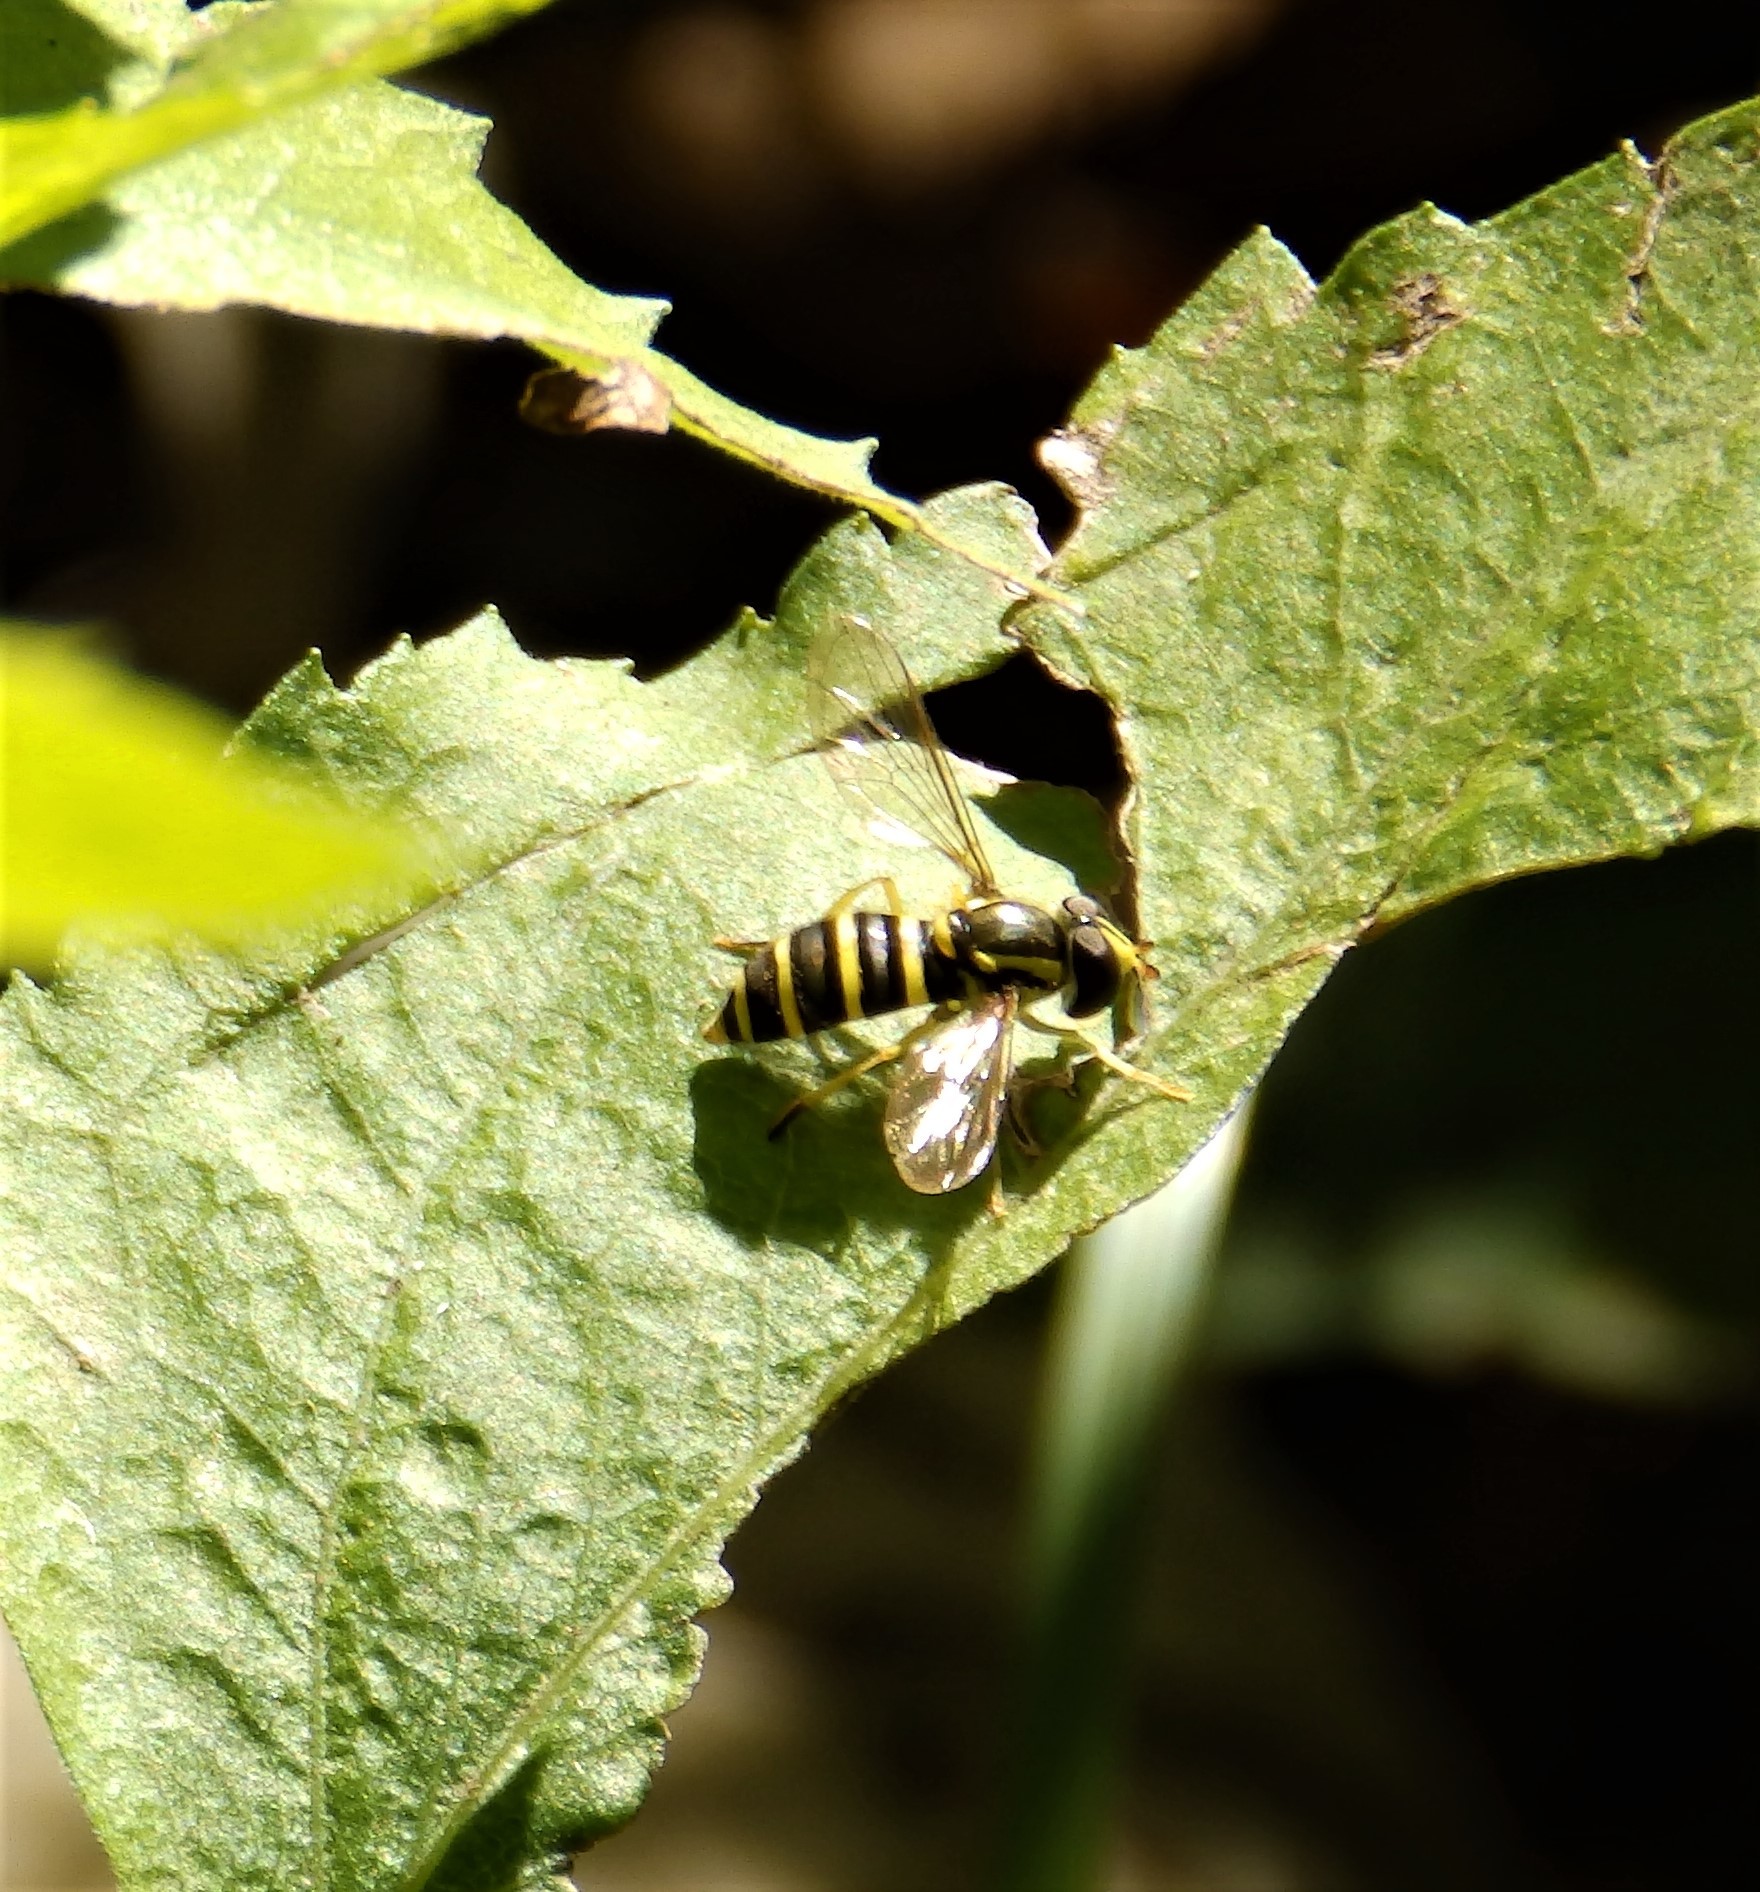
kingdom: Animalia
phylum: Arthropoda
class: Insecta
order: Diptera
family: Syrphidae
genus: Philhelius
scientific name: Philhelius flavipes
